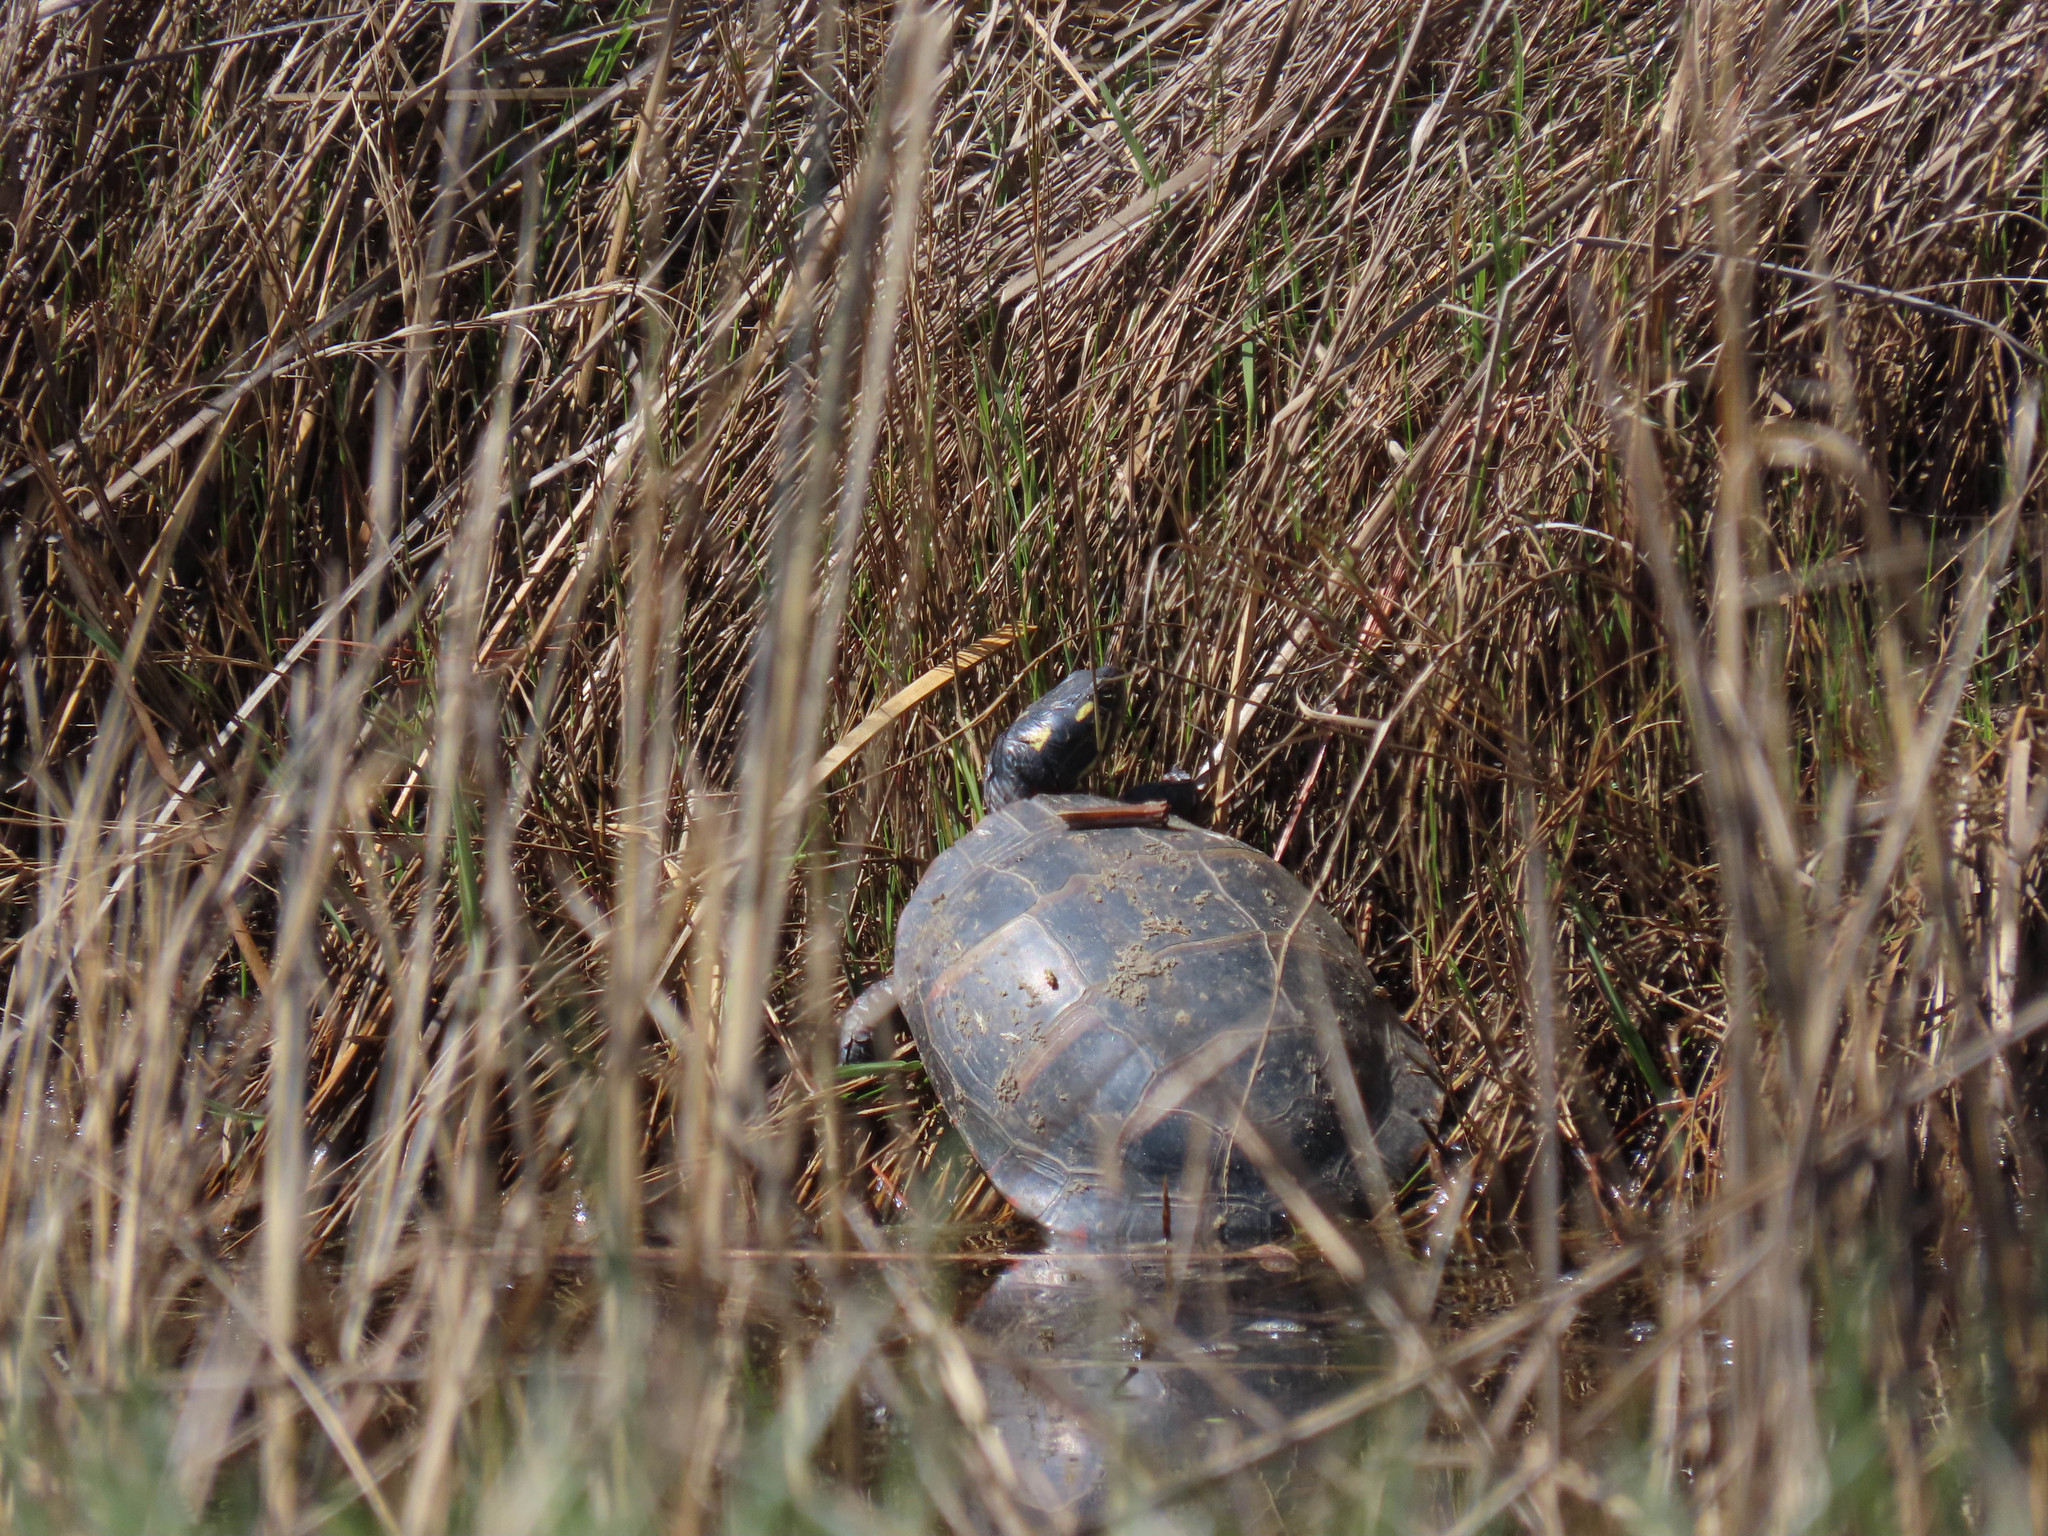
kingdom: Animalia
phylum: Chordata
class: Testudines
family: Emydidae
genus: Chrysemys
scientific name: Chrysemys picta
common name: Painted turtle
